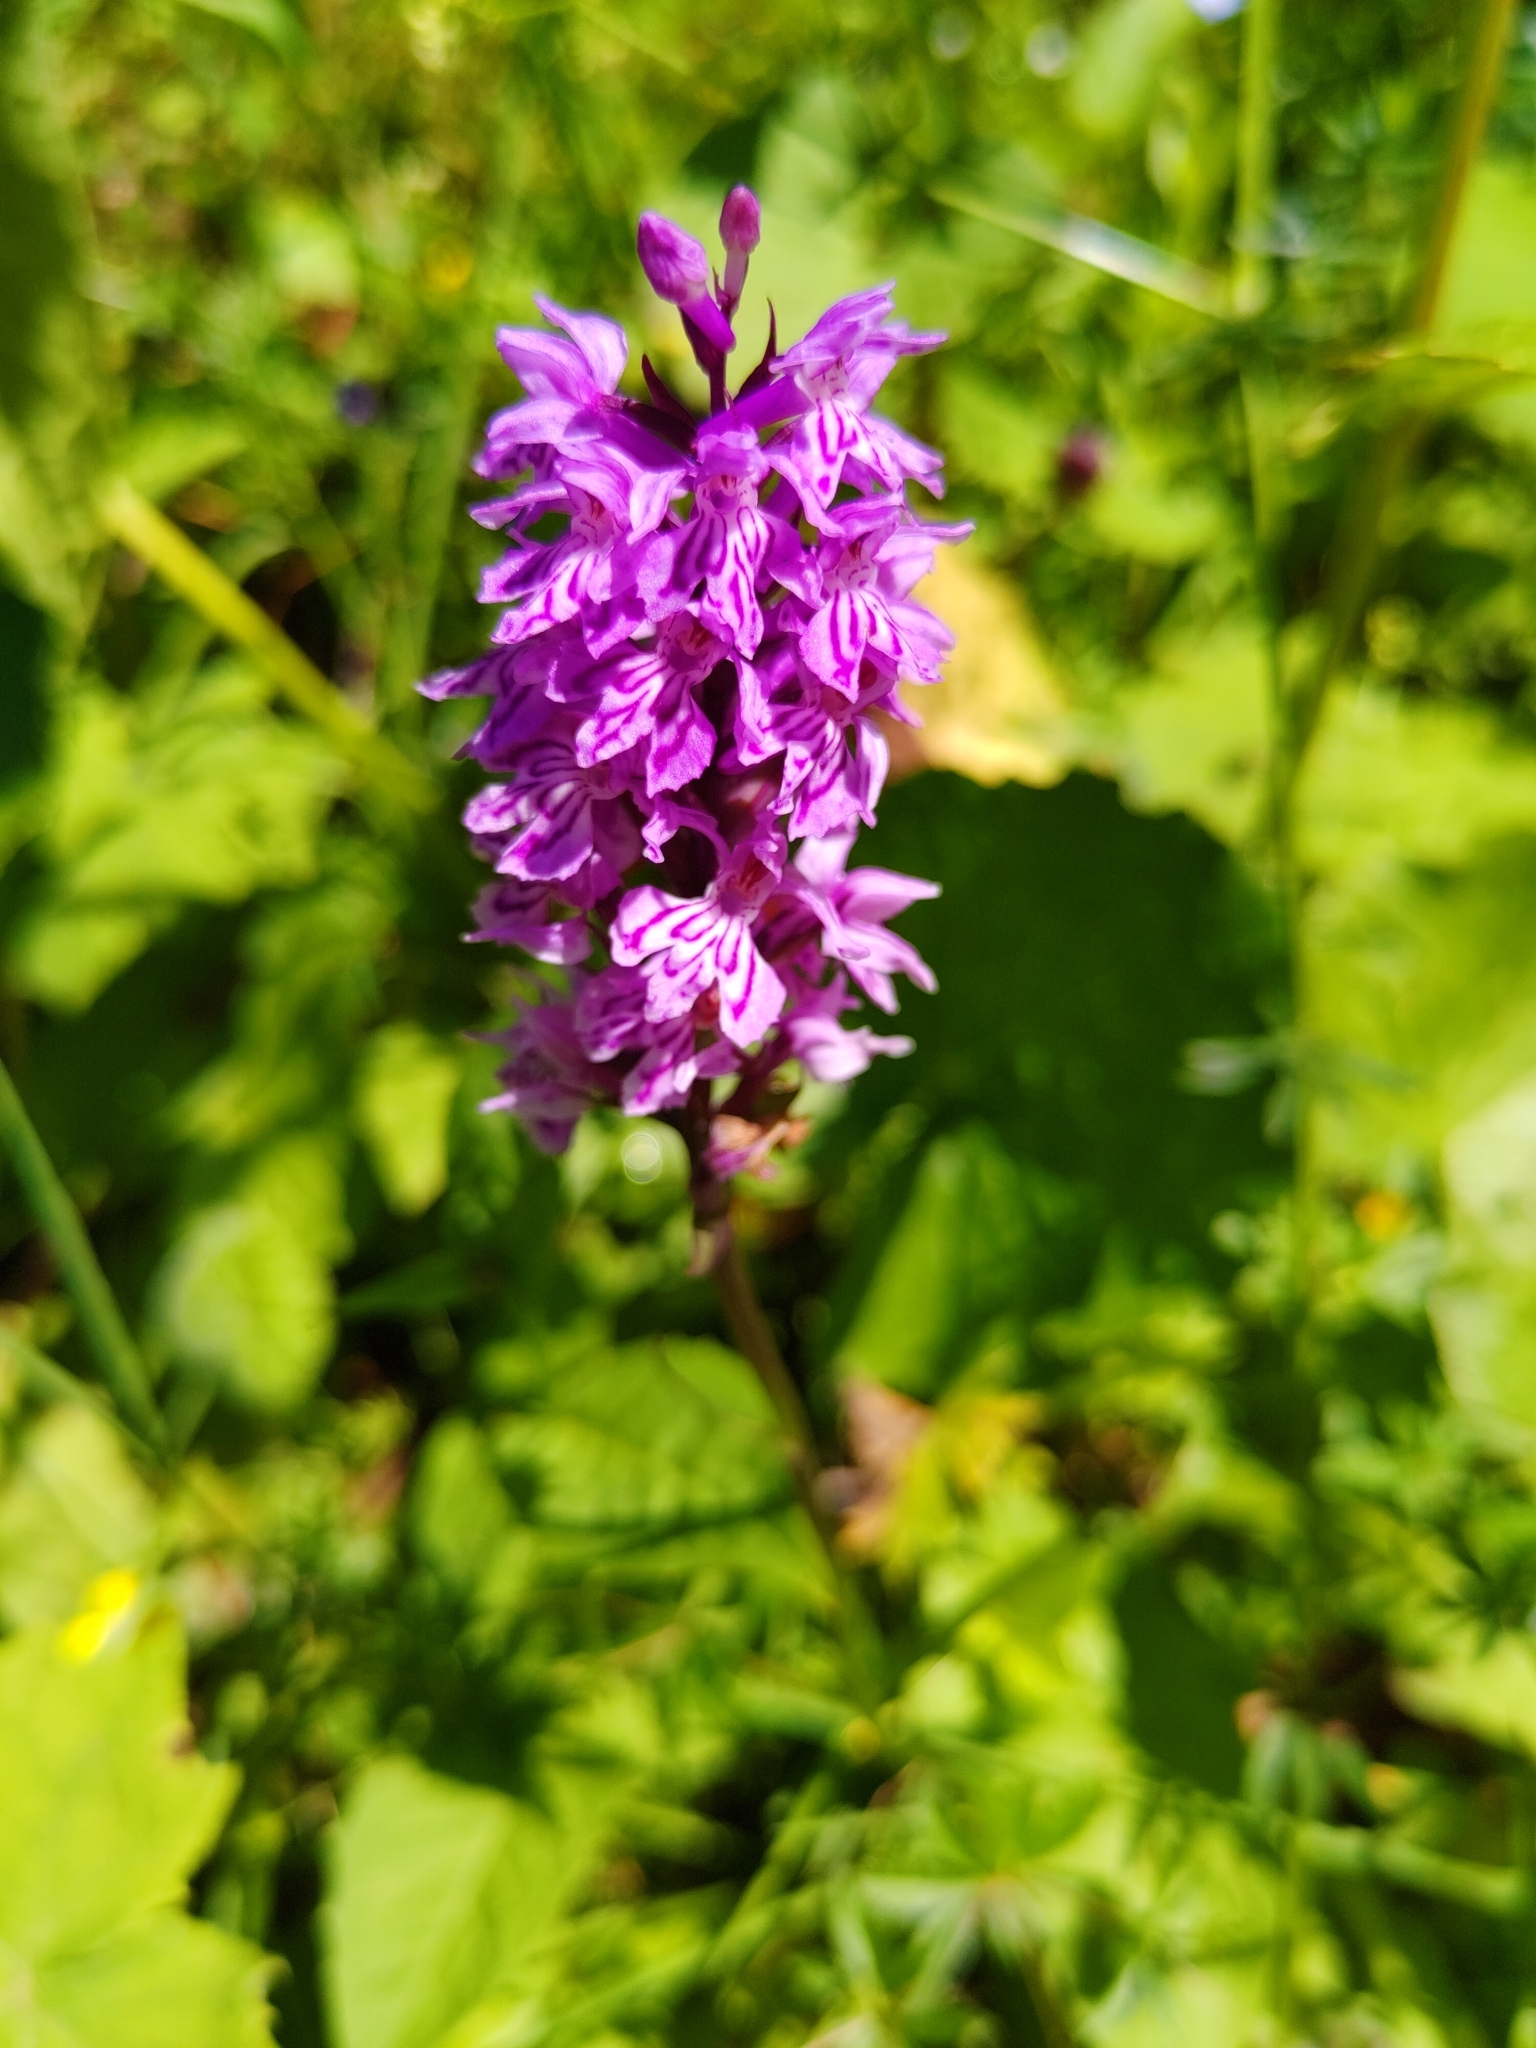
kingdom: Plantae
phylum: Tracheophyta
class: Liliopsida
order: Asparagales
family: Orchidaceae
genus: Dactylorhiza
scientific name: Dactylorhiza maculata
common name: Heath spotted-orchid
